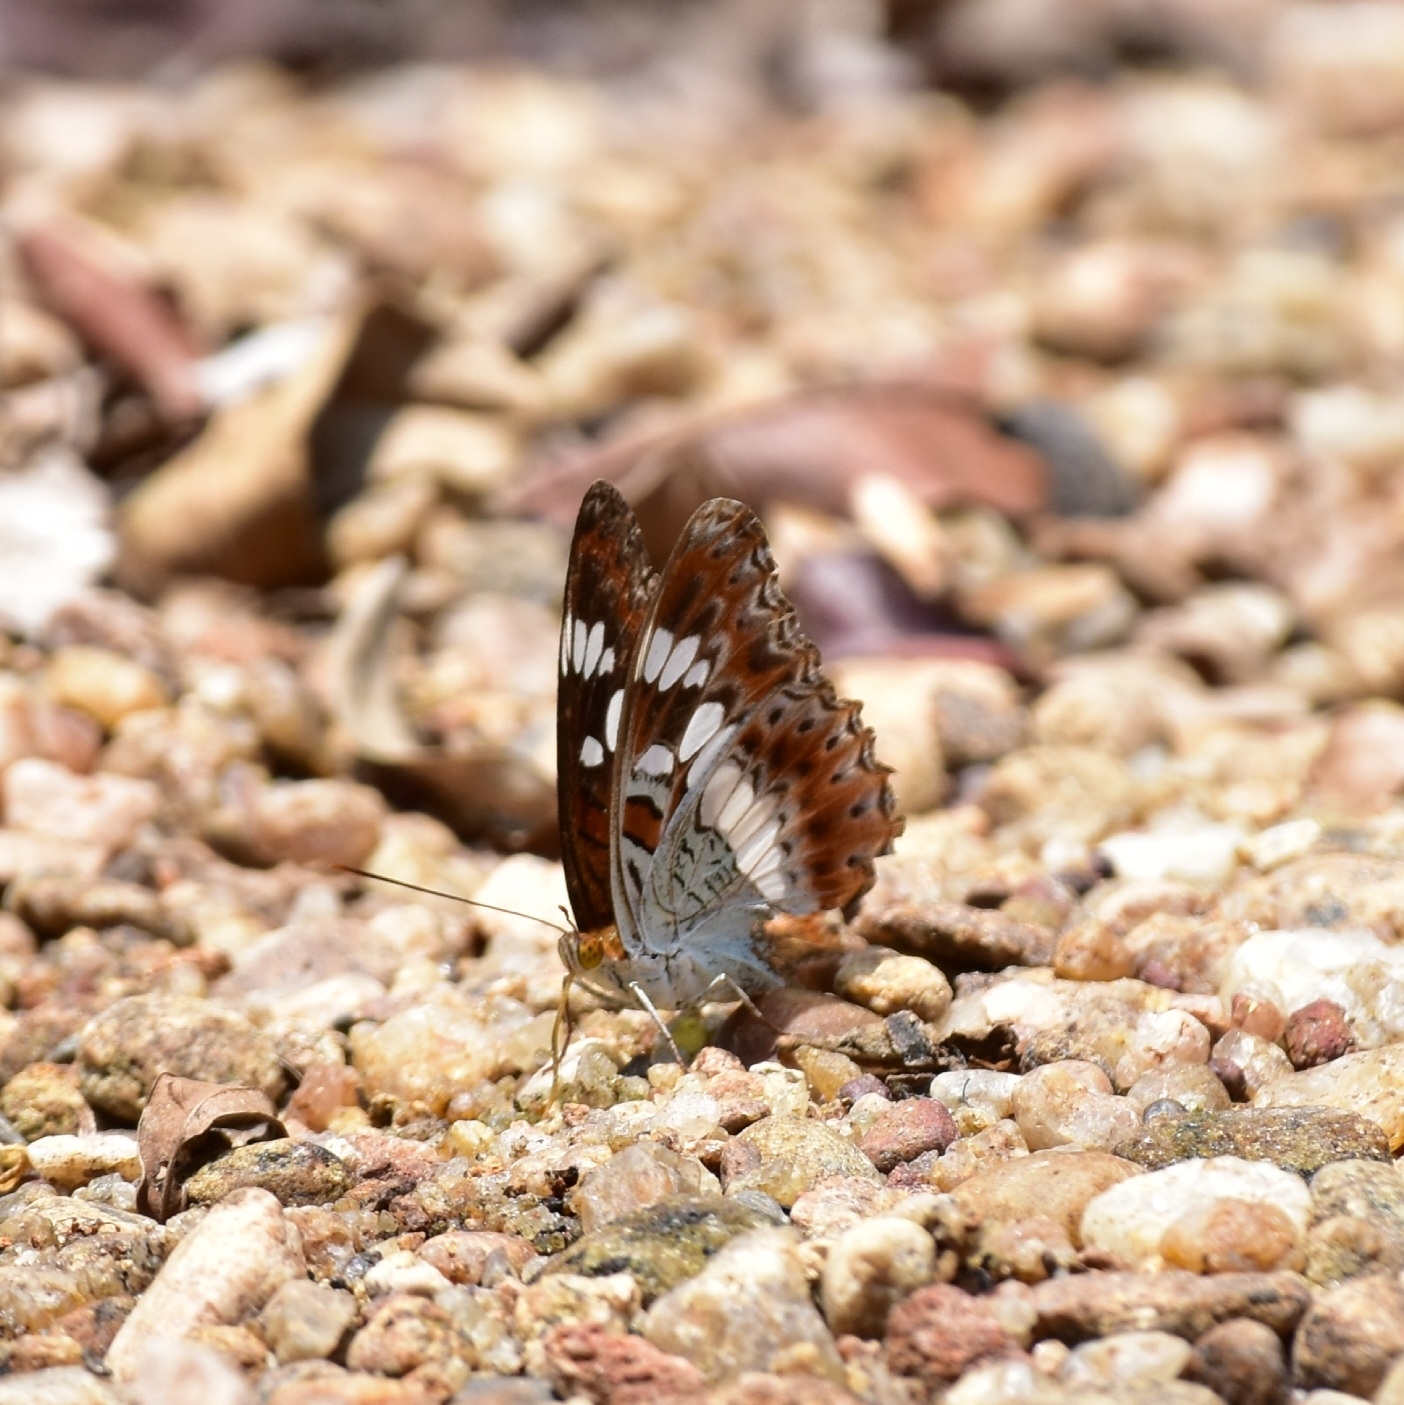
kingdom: Animalia
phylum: Arthropoda
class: Insecta
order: Lepidoptera
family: Nymphalidae
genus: Limenitis
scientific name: Limenitis Moduza procris
